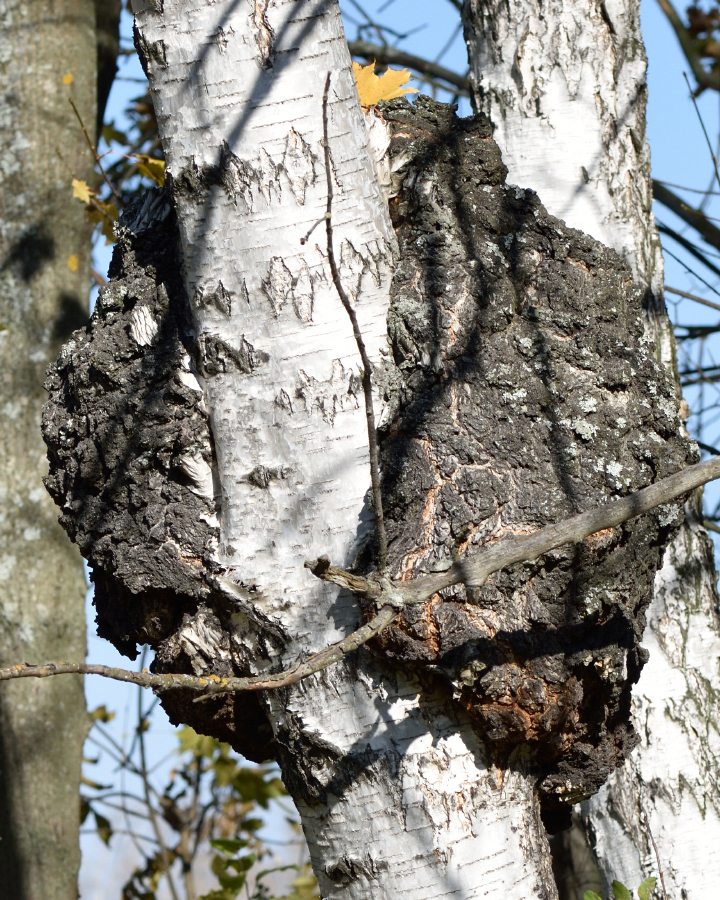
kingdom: Bacteria
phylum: Proteobacteria
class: Alphaproteobacteria
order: Rhizobiales
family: Rhizobiaceae
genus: Rhizobium
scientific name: Rhizobium Agrobacterium radiobacter
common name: Bacterial crown gall
